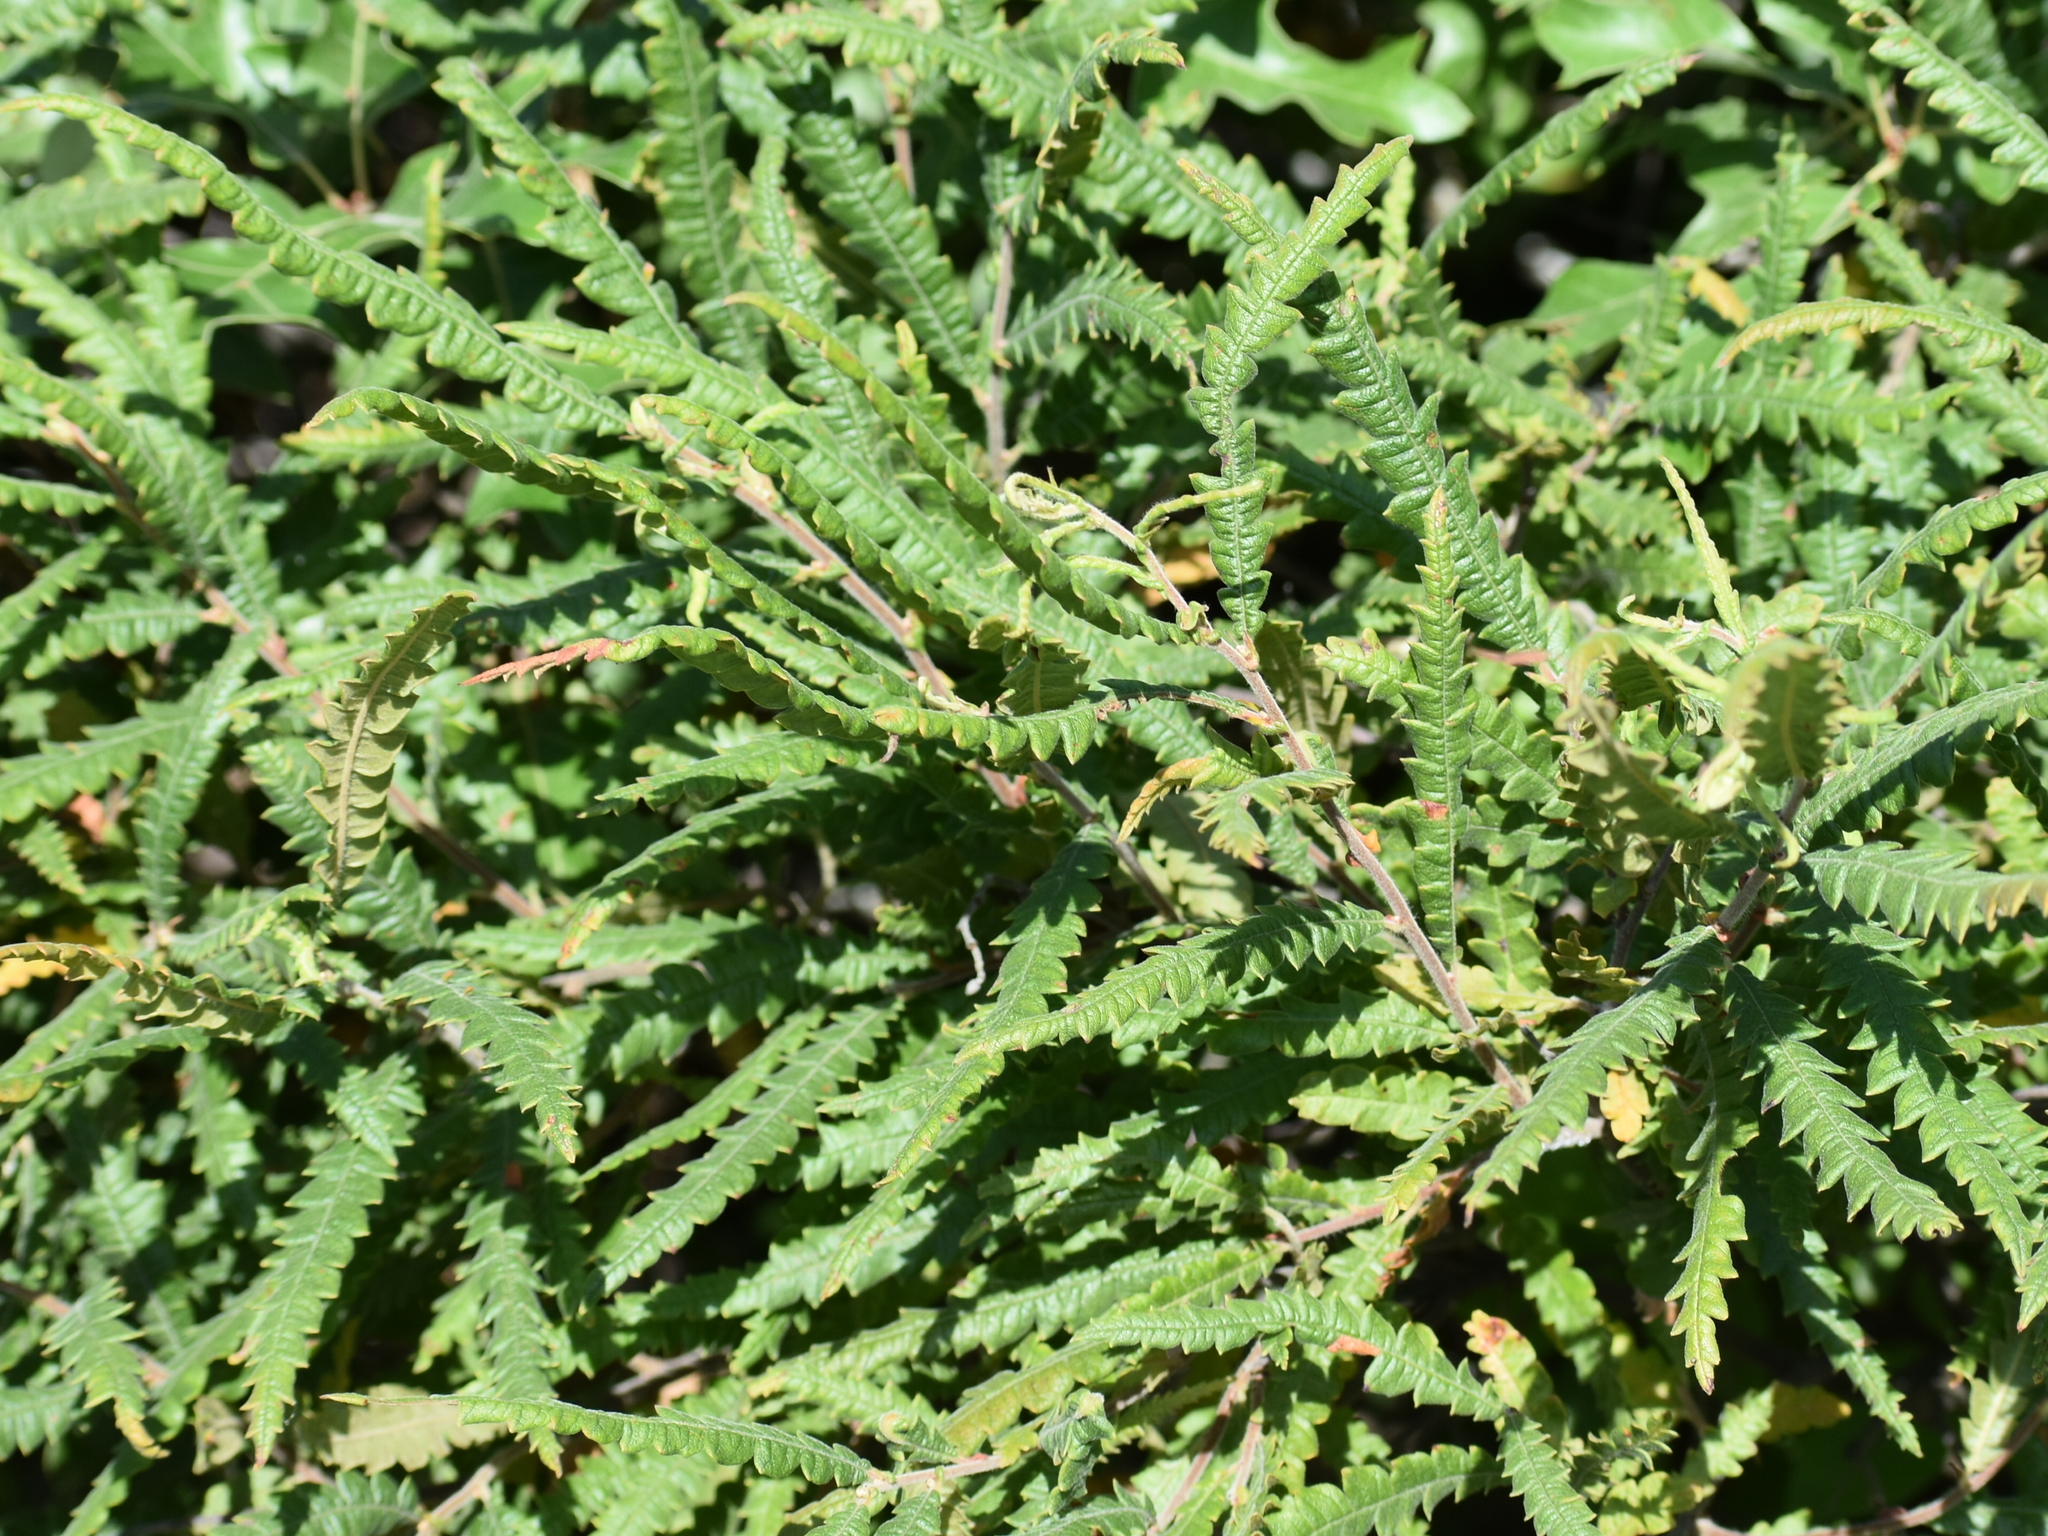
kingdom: Plantae
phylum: Tracheophyta
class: Magnoliopsida
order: Fagales
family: Myricaceae
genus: Comptonia
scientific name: Comptonia peregrina
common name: Sweet-fern
